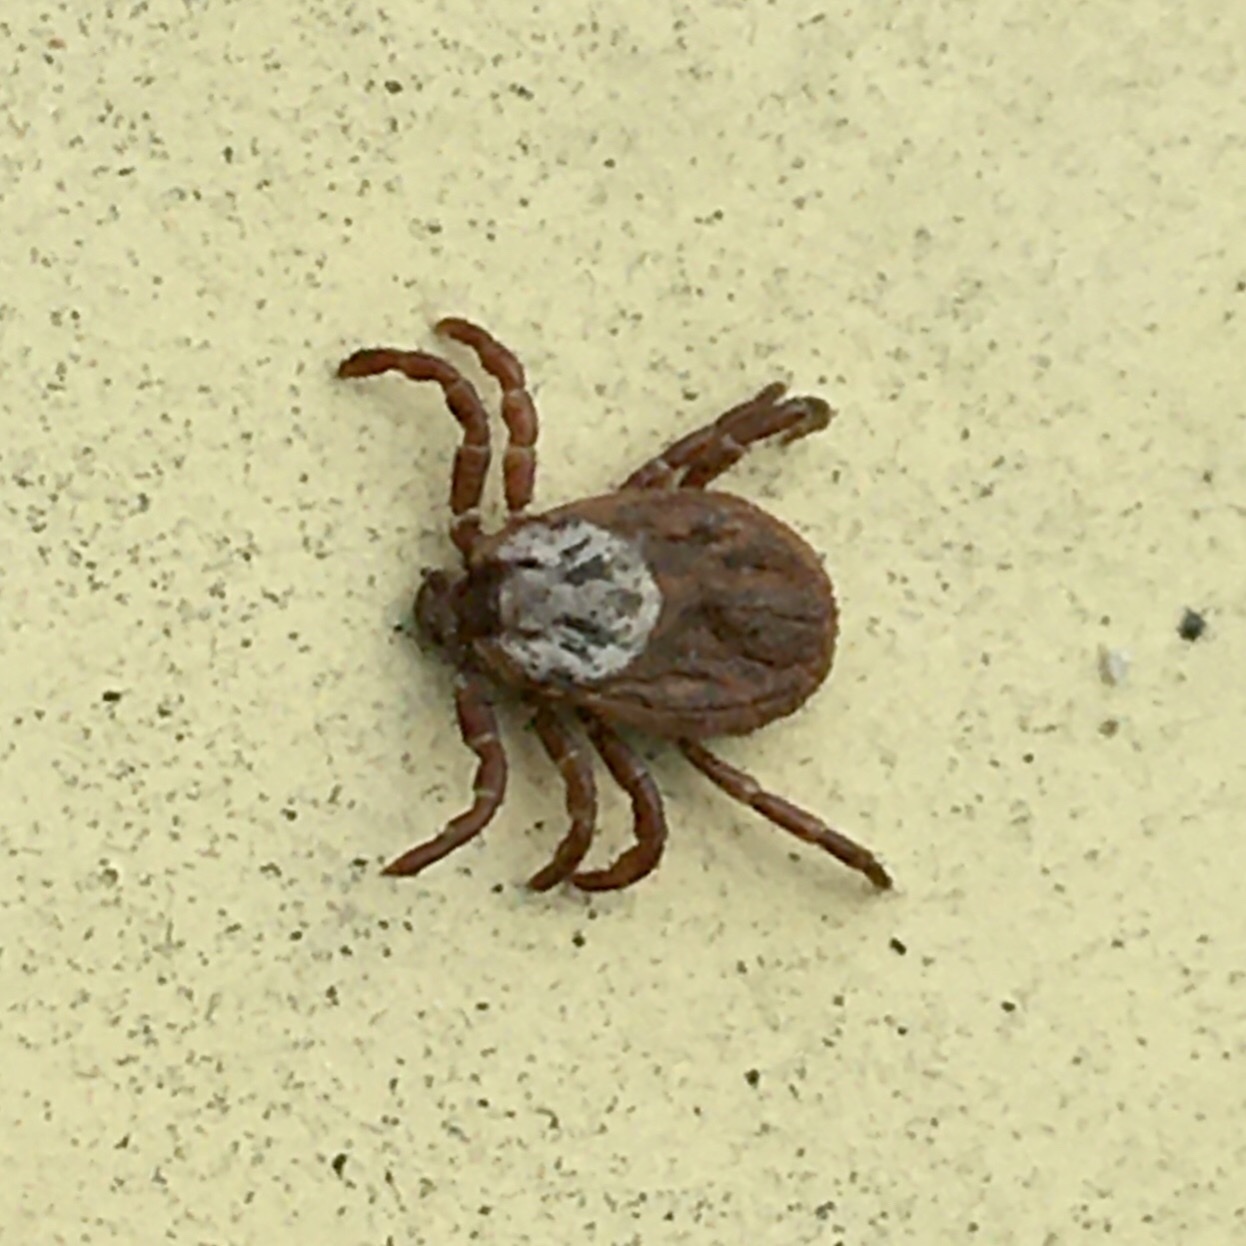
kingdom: Animalia
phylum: Arthropoda
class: Arachnida
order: Ixodida
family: Ixodidae
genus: Dermacentor
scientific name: Dermacentor reticulatus
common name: Ornate cow tick
